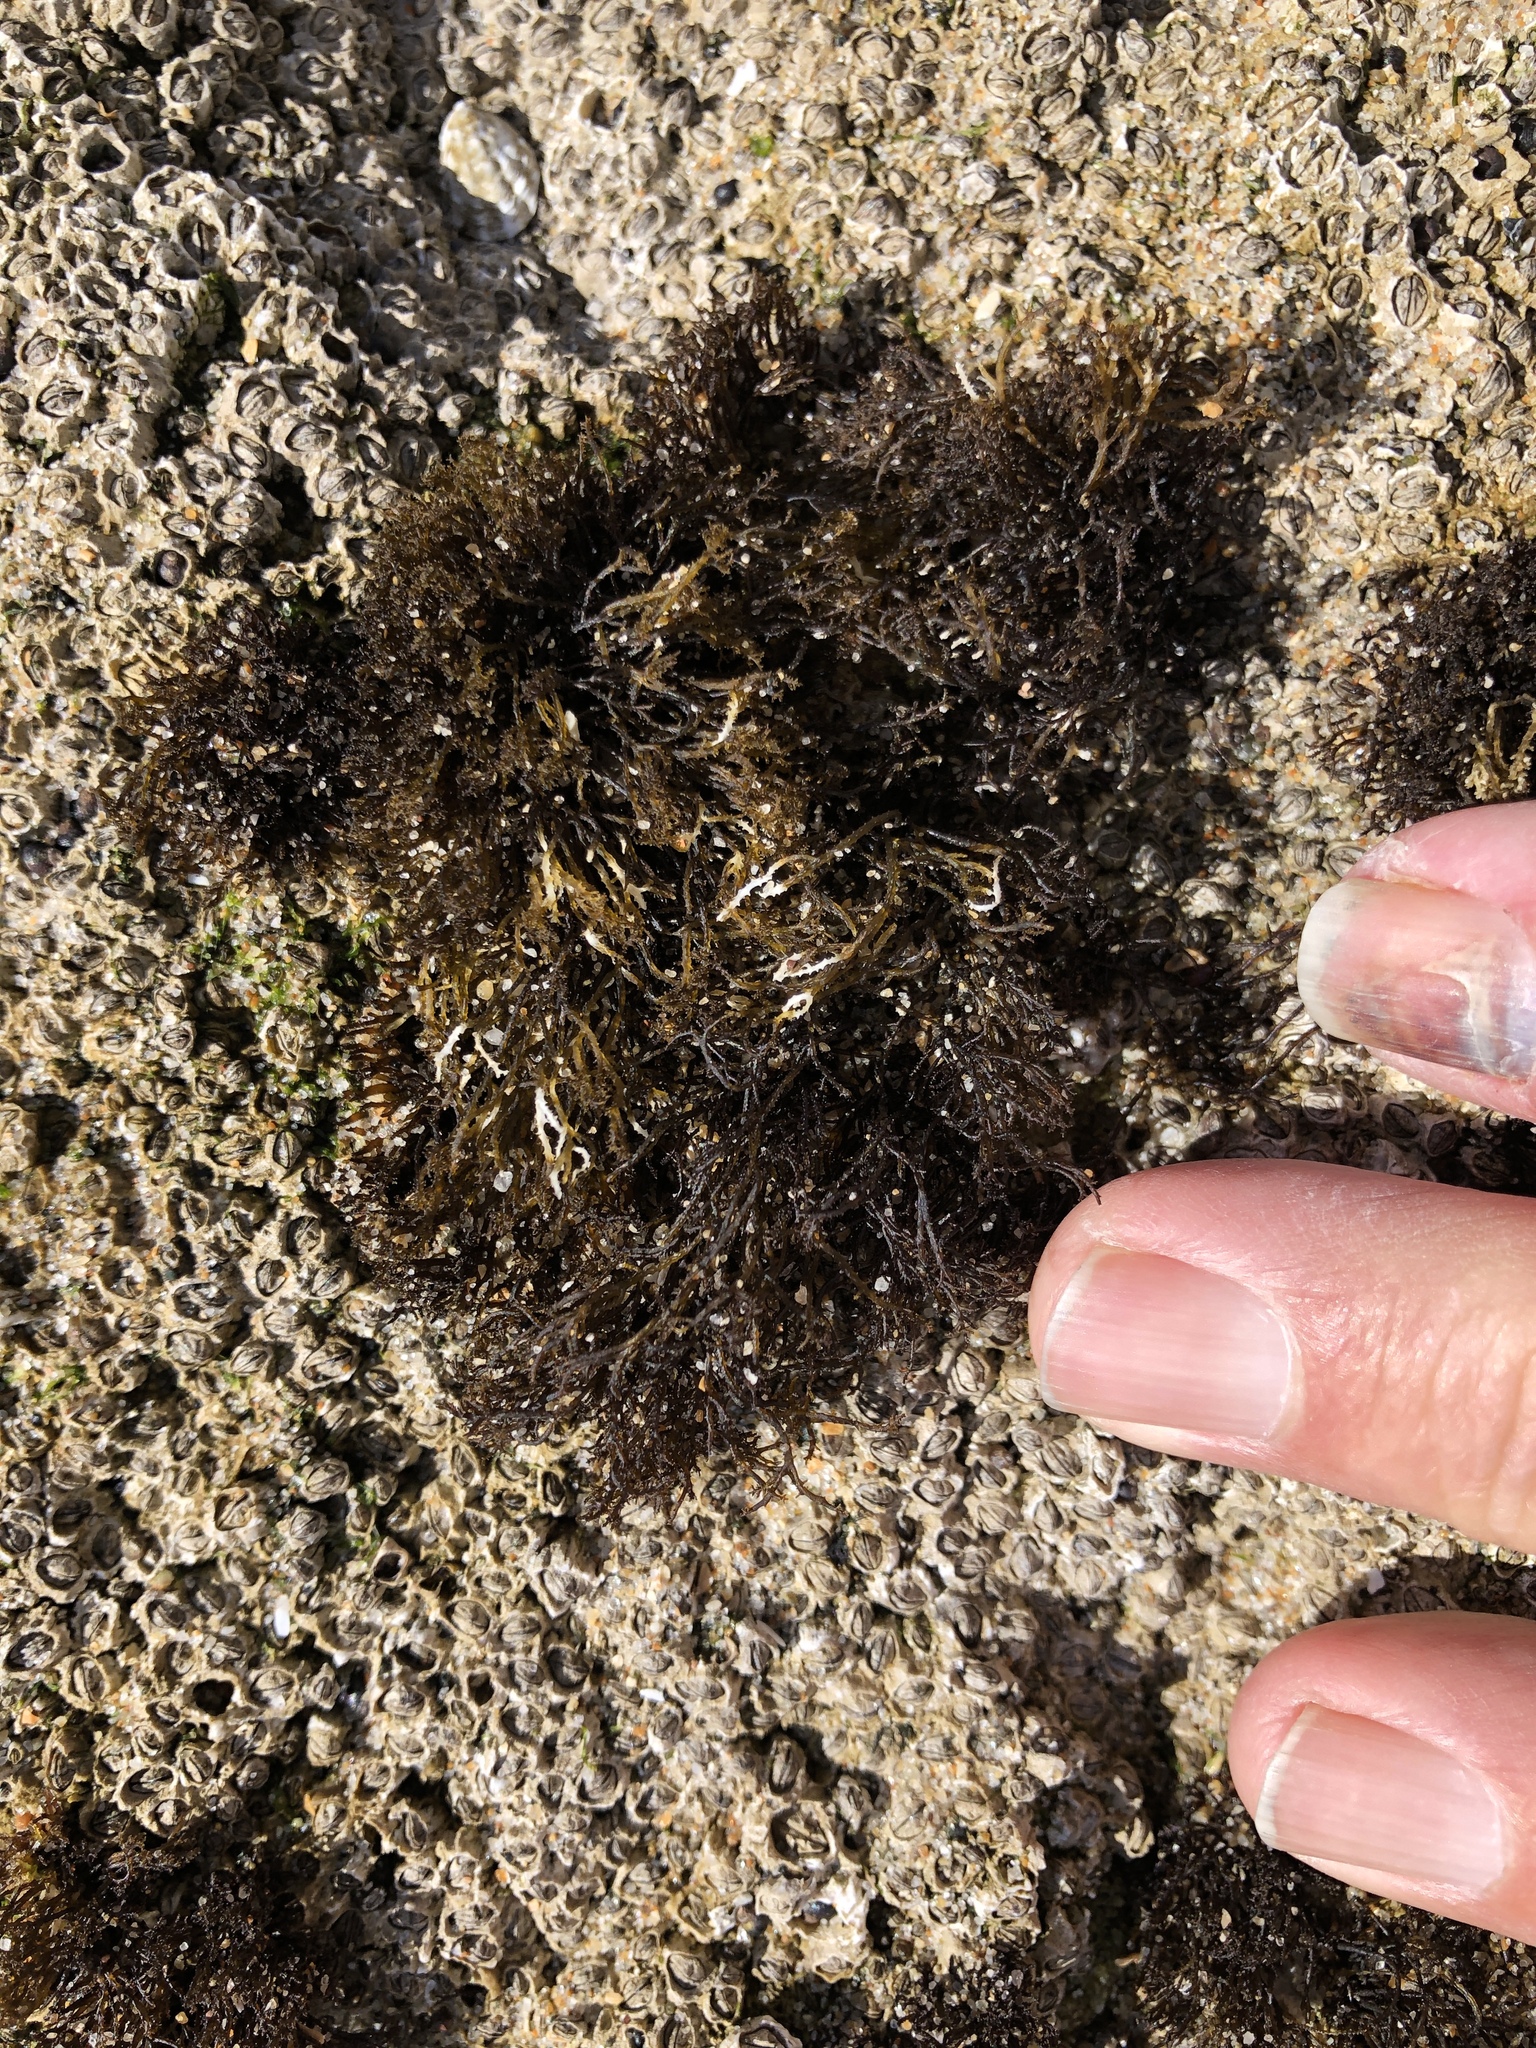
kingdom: Plantae
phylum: Rhodophyta
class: Florideophyceae
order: Gigartinales
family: Endocladiaceae
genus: Endocladia
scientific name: Endocladia muricata
